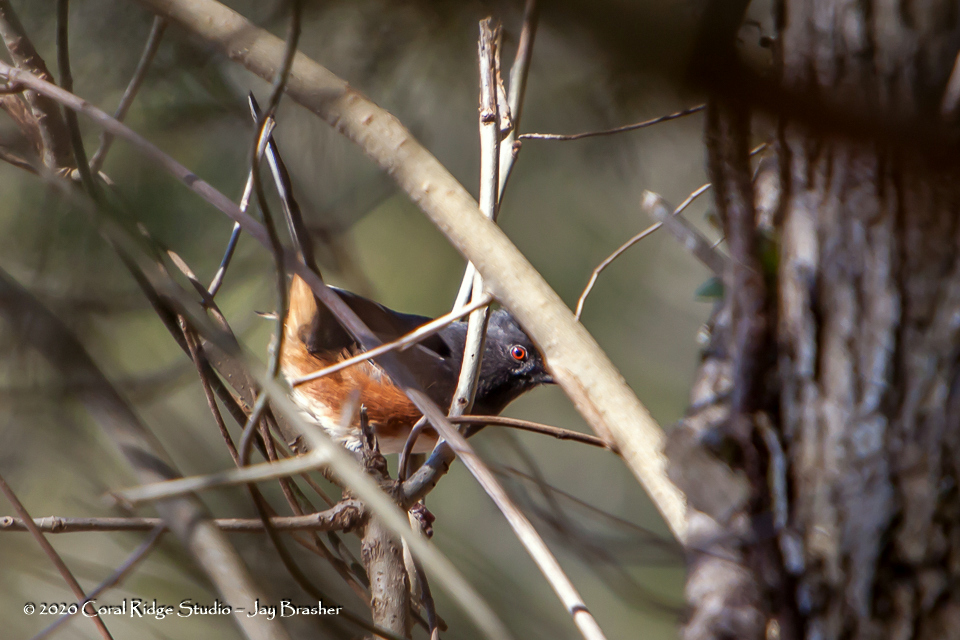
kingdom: Animalia
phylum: Chordata
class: Aves
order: Passeriformes
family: Passerellidae
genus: Pipilo
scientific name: Pipilo erythrophthalmus
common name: Eastern towhee
